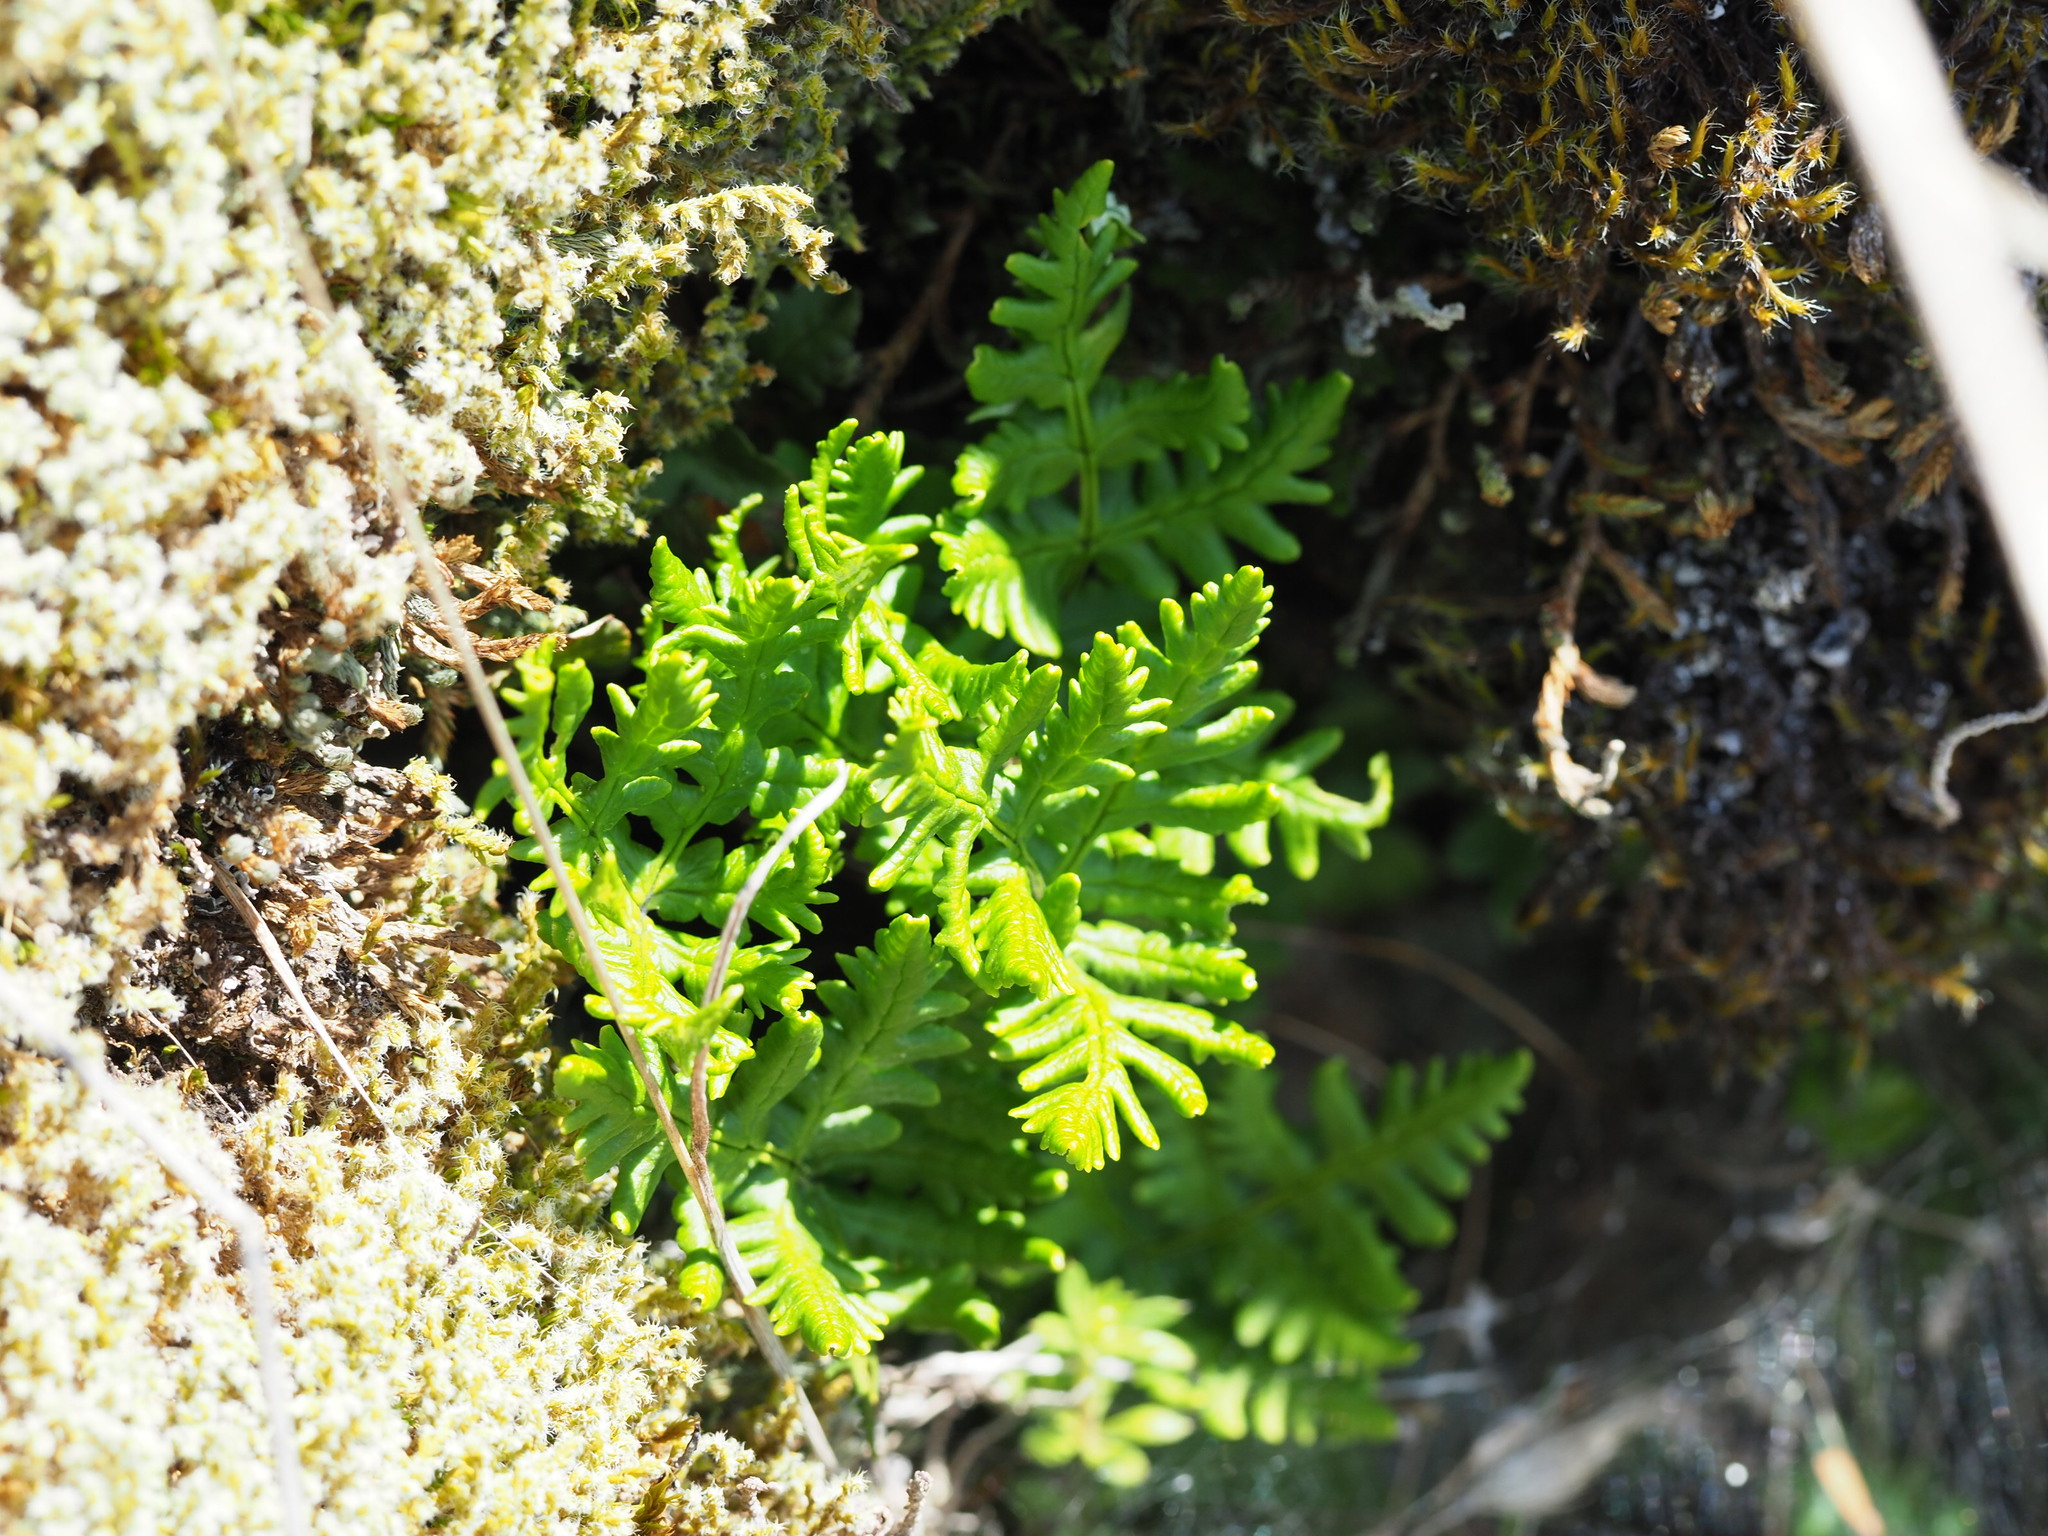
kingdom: Plantae
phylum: Tracheophyta
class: Polypodiopsida
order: Polypodiales
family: Pteridaceae
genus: Pentagramma
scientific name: Pentagramma triangularis
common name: Gold fern
